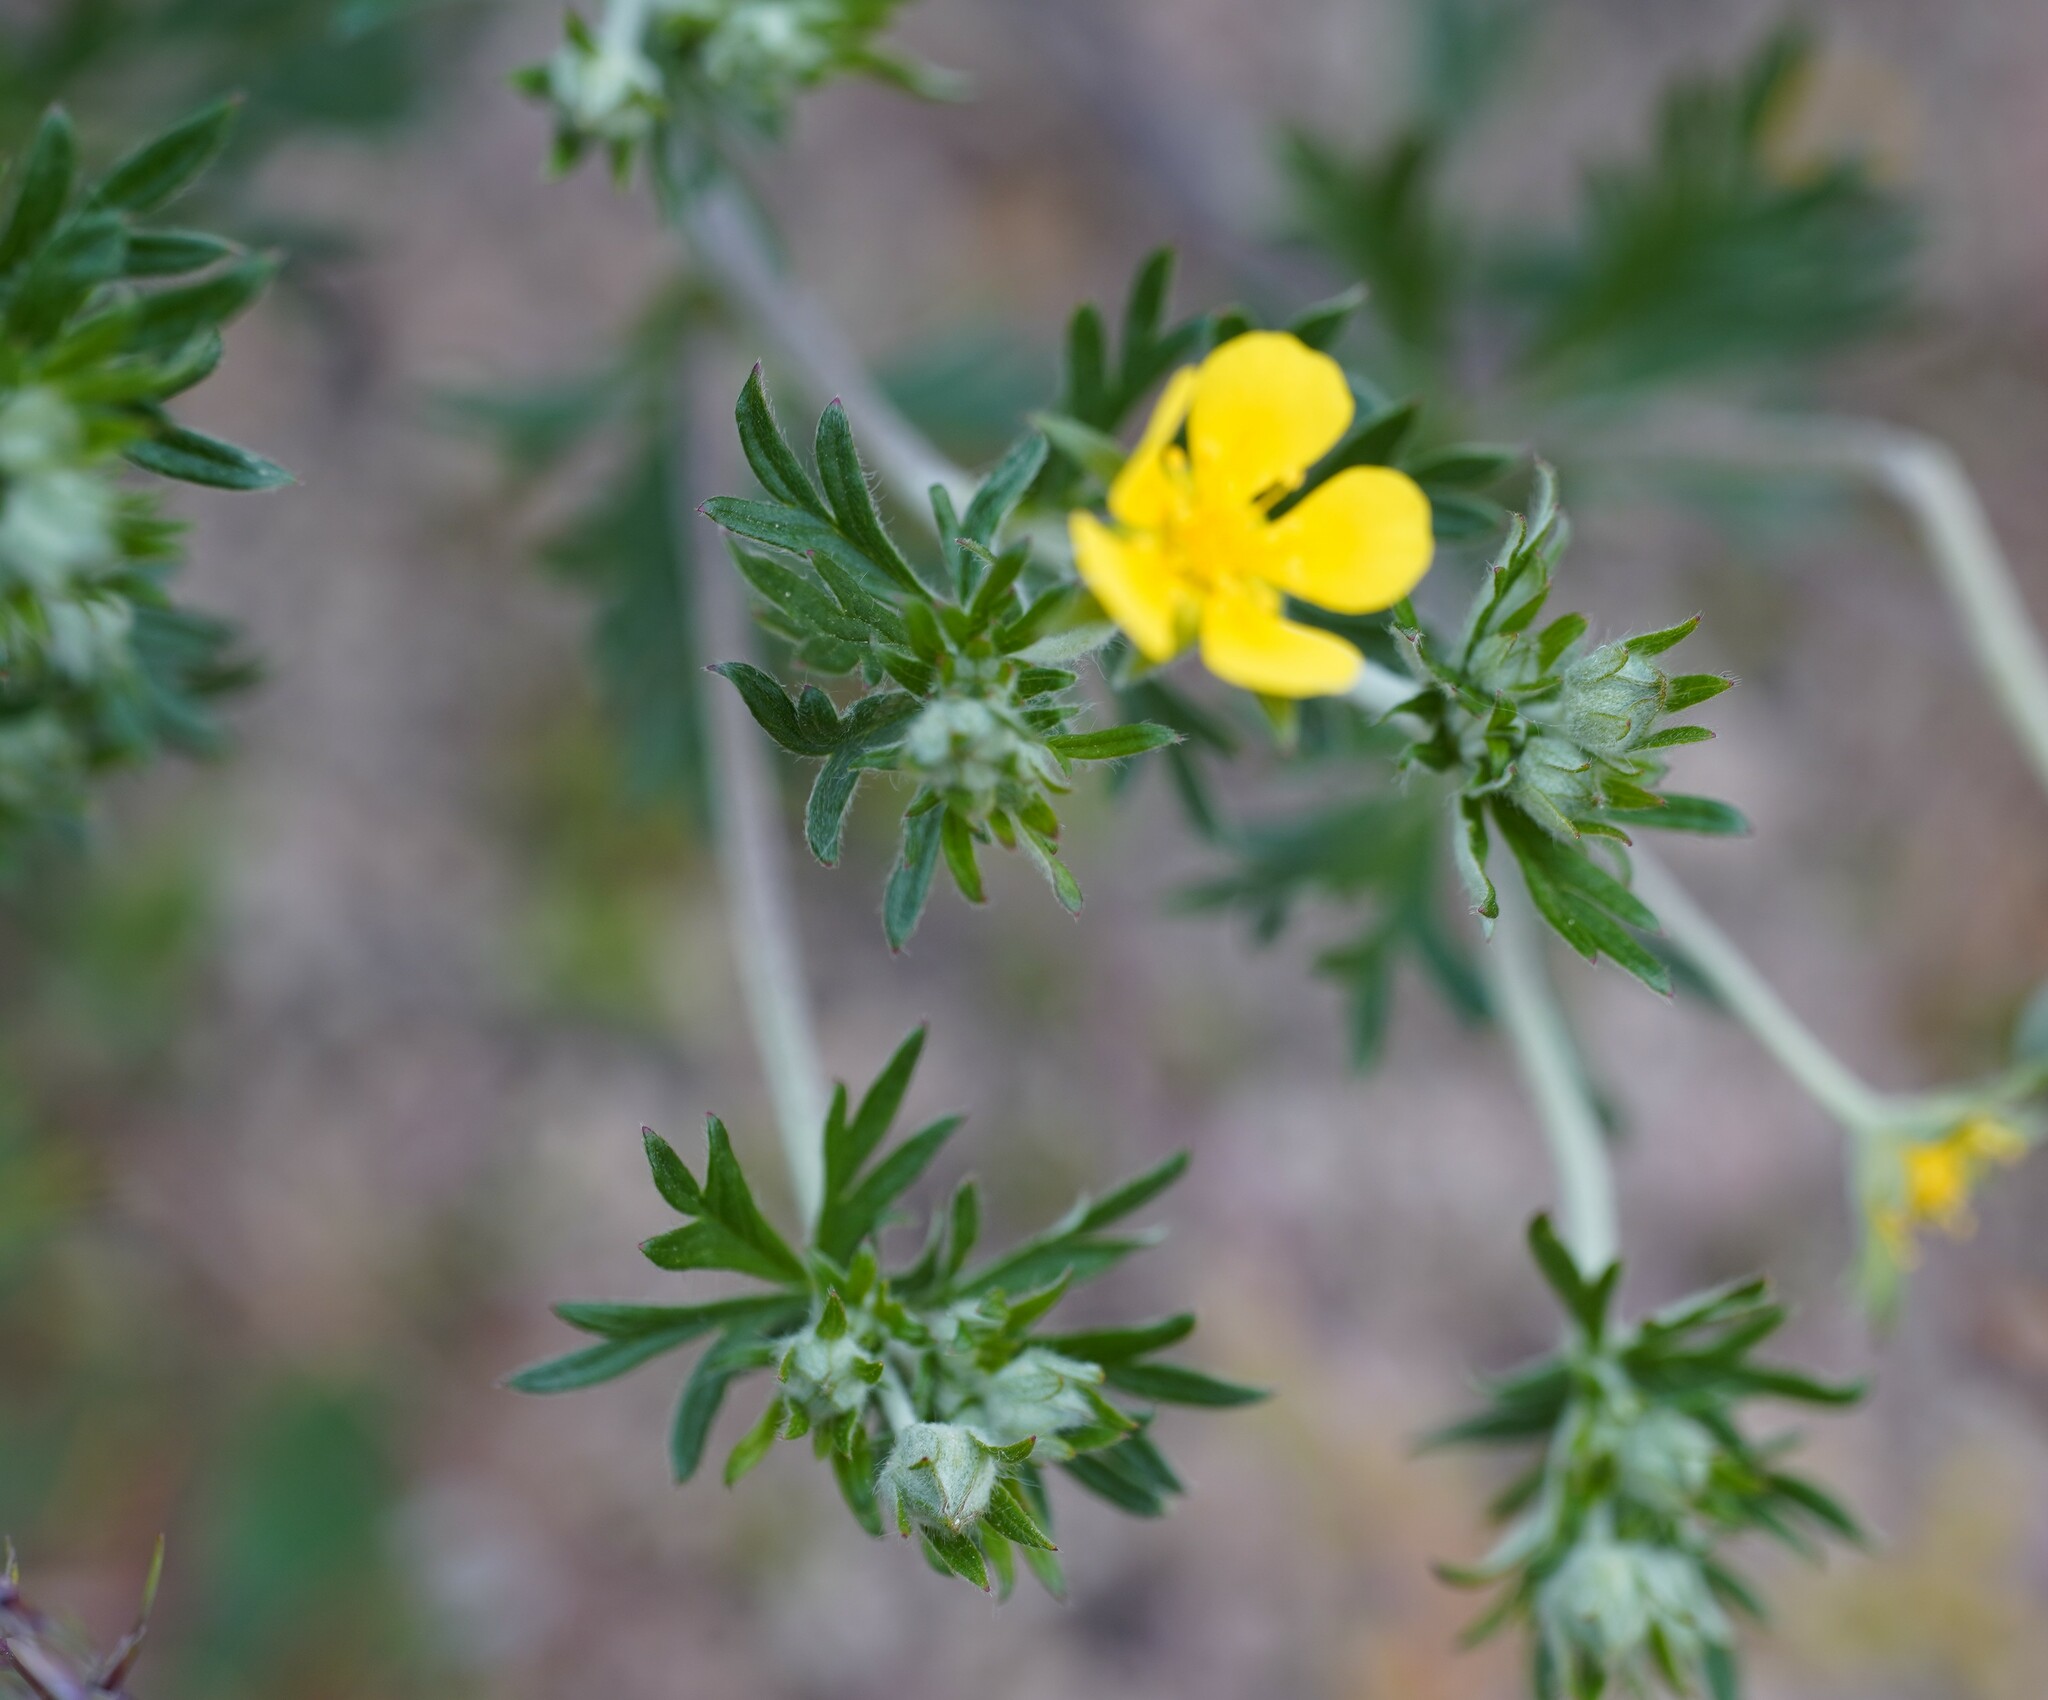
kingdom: Plantae
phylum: Tracheophyta
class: Magnoliopsida
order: Rosales
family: Rosaceae
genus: Potentilla
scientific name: Potentilla argentea
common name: Hoary cinquefoil
